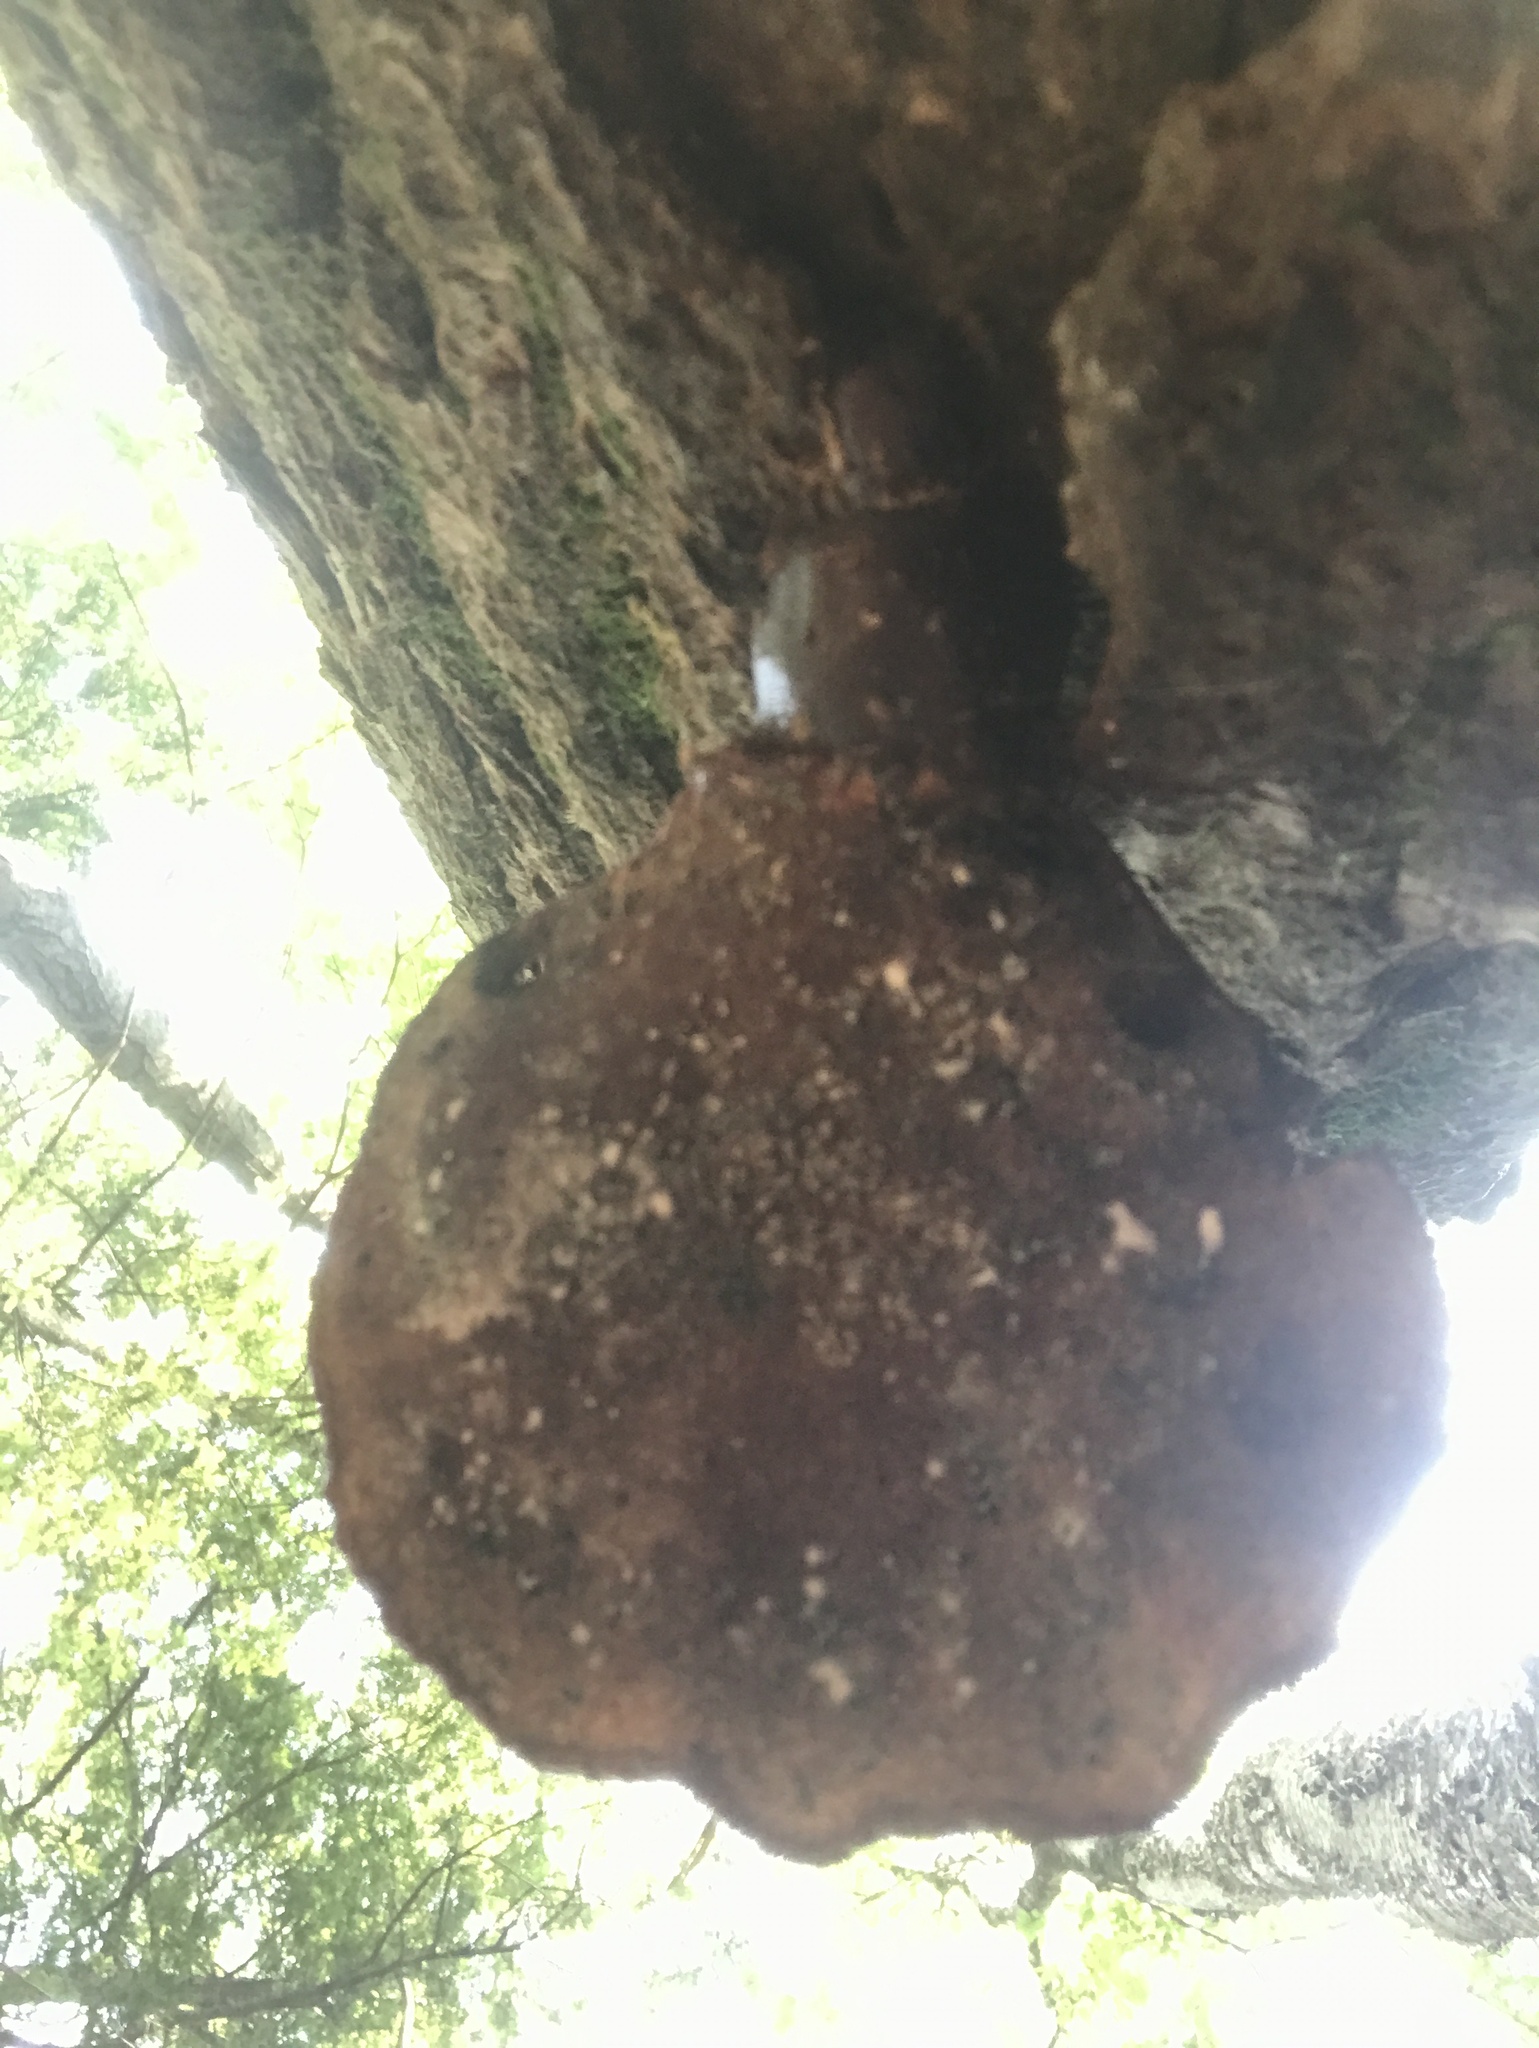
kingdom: Fungi
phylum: Basidiomycota
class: Agaricomycetes
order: Polyporales
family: Polyporaceae
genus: Ganoderma
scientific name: Ganoderma tsugae
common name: Hemlock varnish shelf
